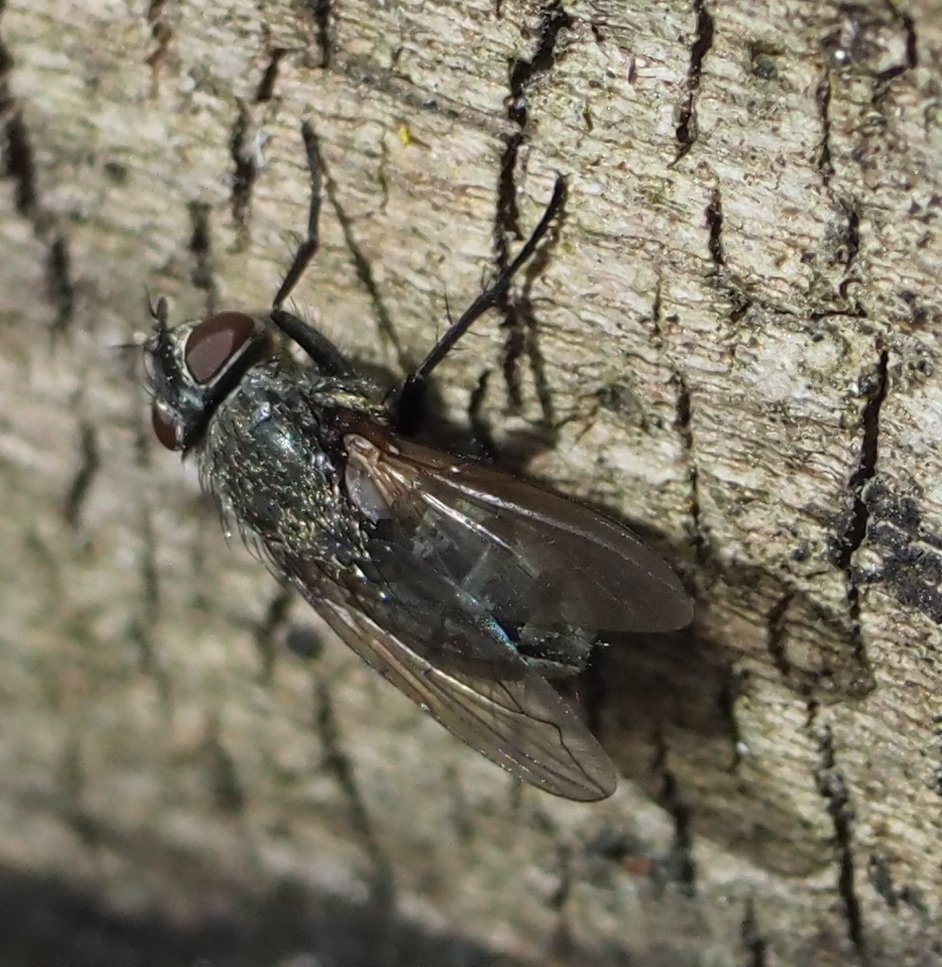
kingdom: Animalia
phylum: Arthropoda
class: Insecta
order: Diptera
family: Polleniidae
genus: Pollenia
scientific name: Pollenia
